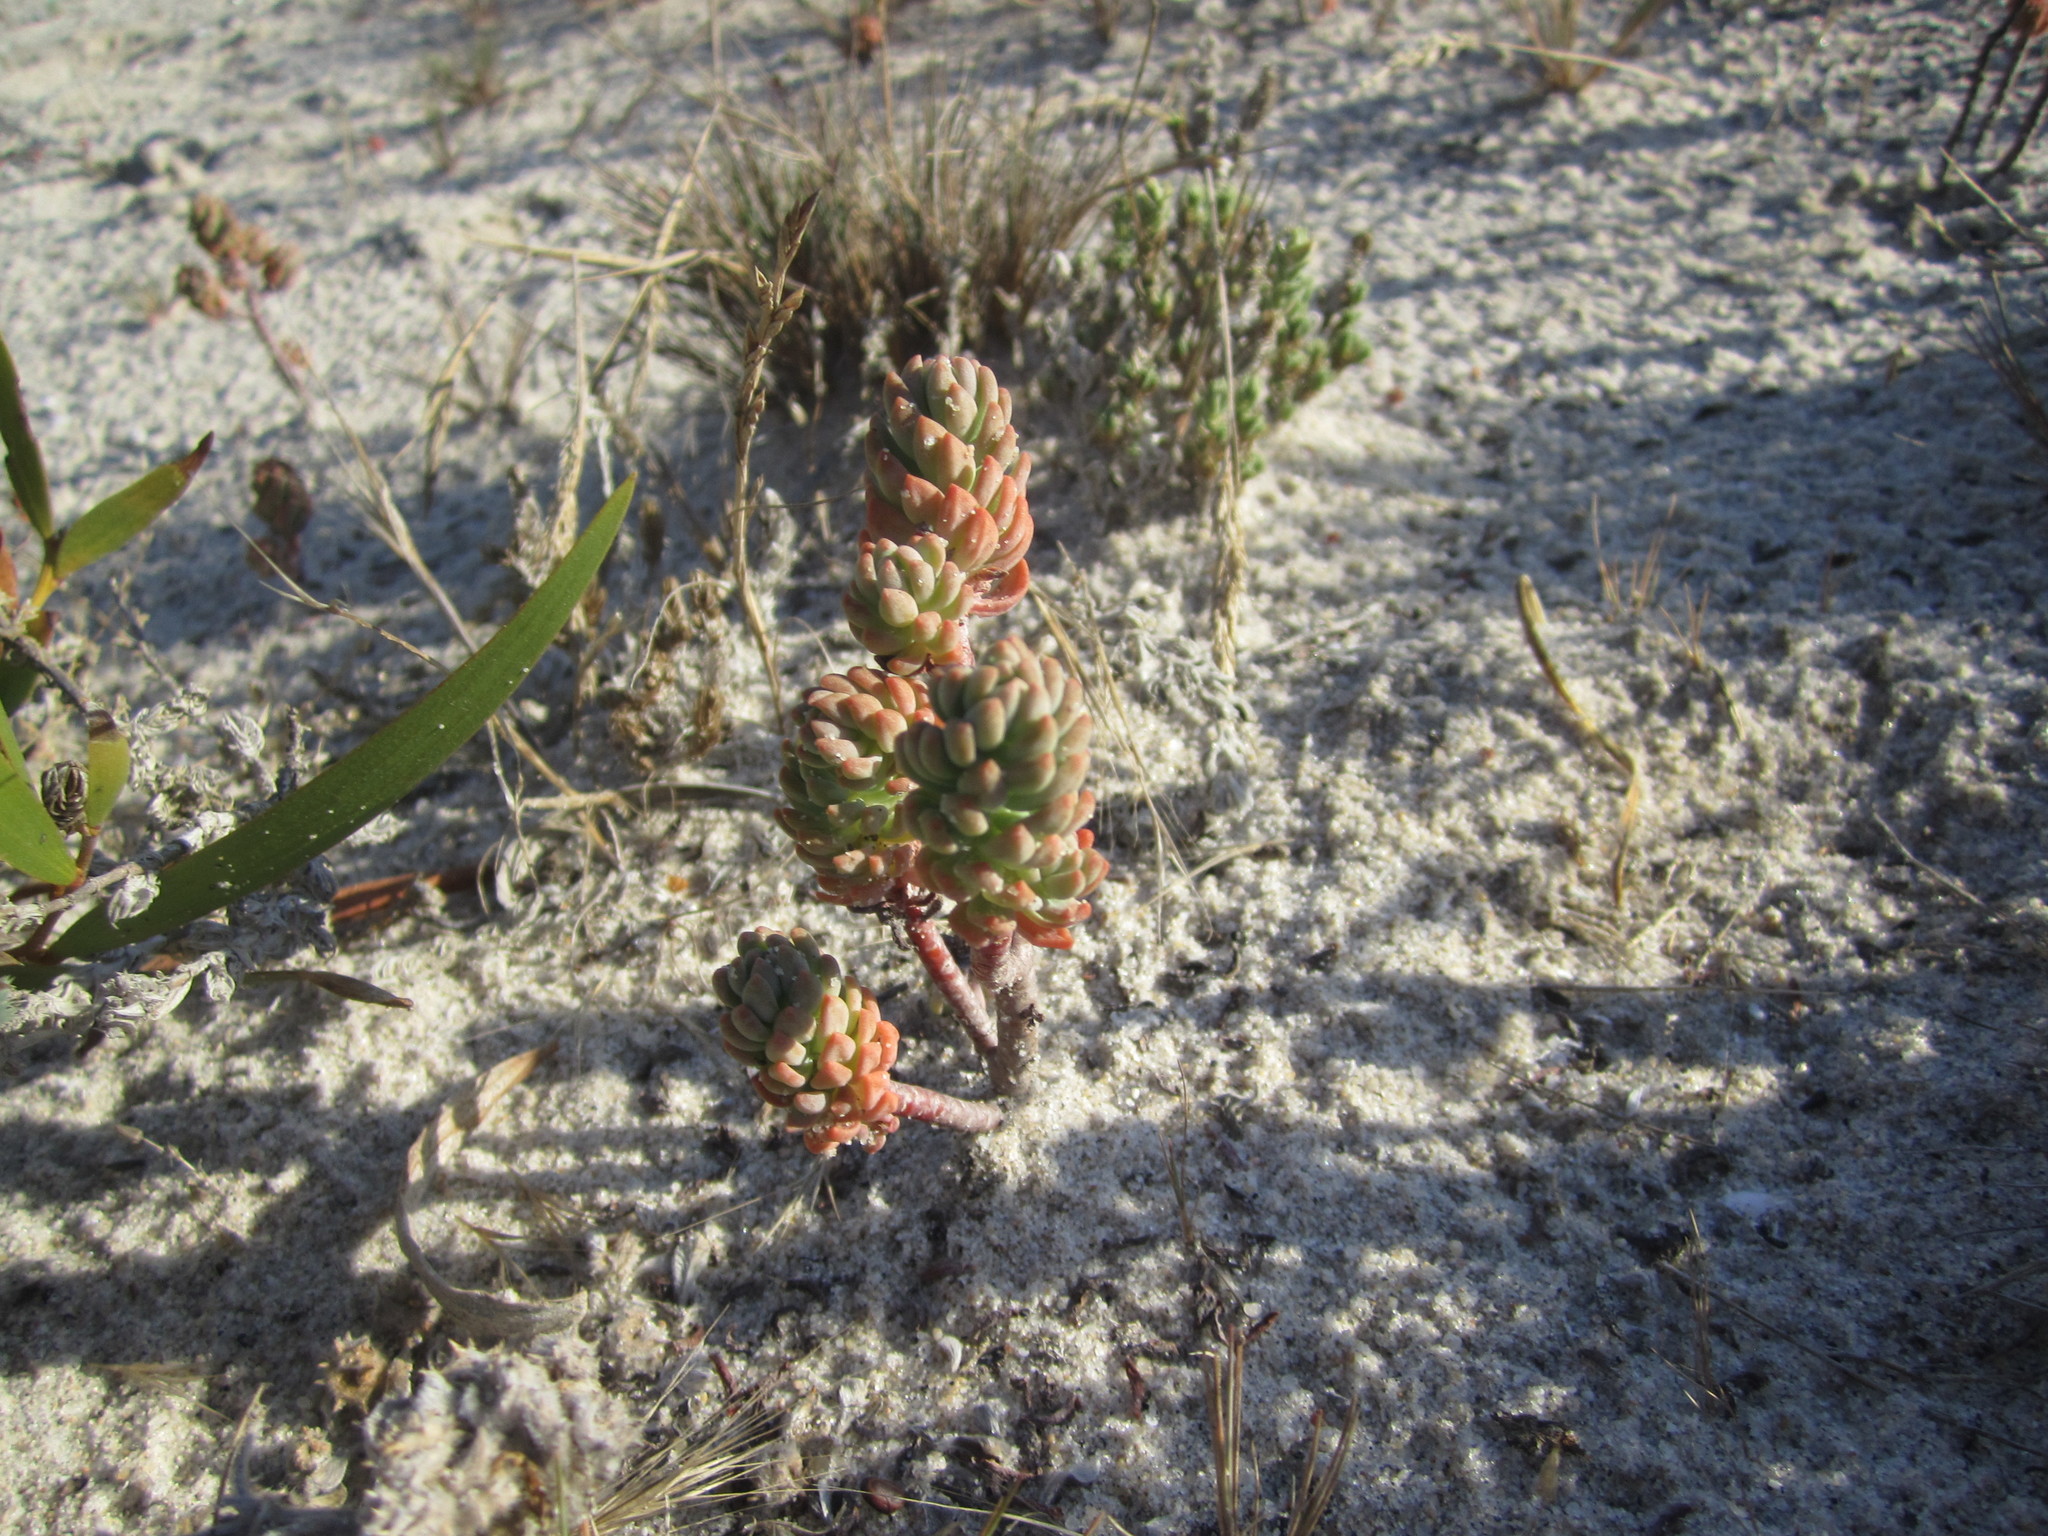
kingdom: Plantae
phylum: Tracheophyta
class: Magnoliopsida
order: Saxifragales
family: Crassulaceae
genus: Petrosedum
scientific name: Petrosedum sediforme
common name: Pale stonecrop
